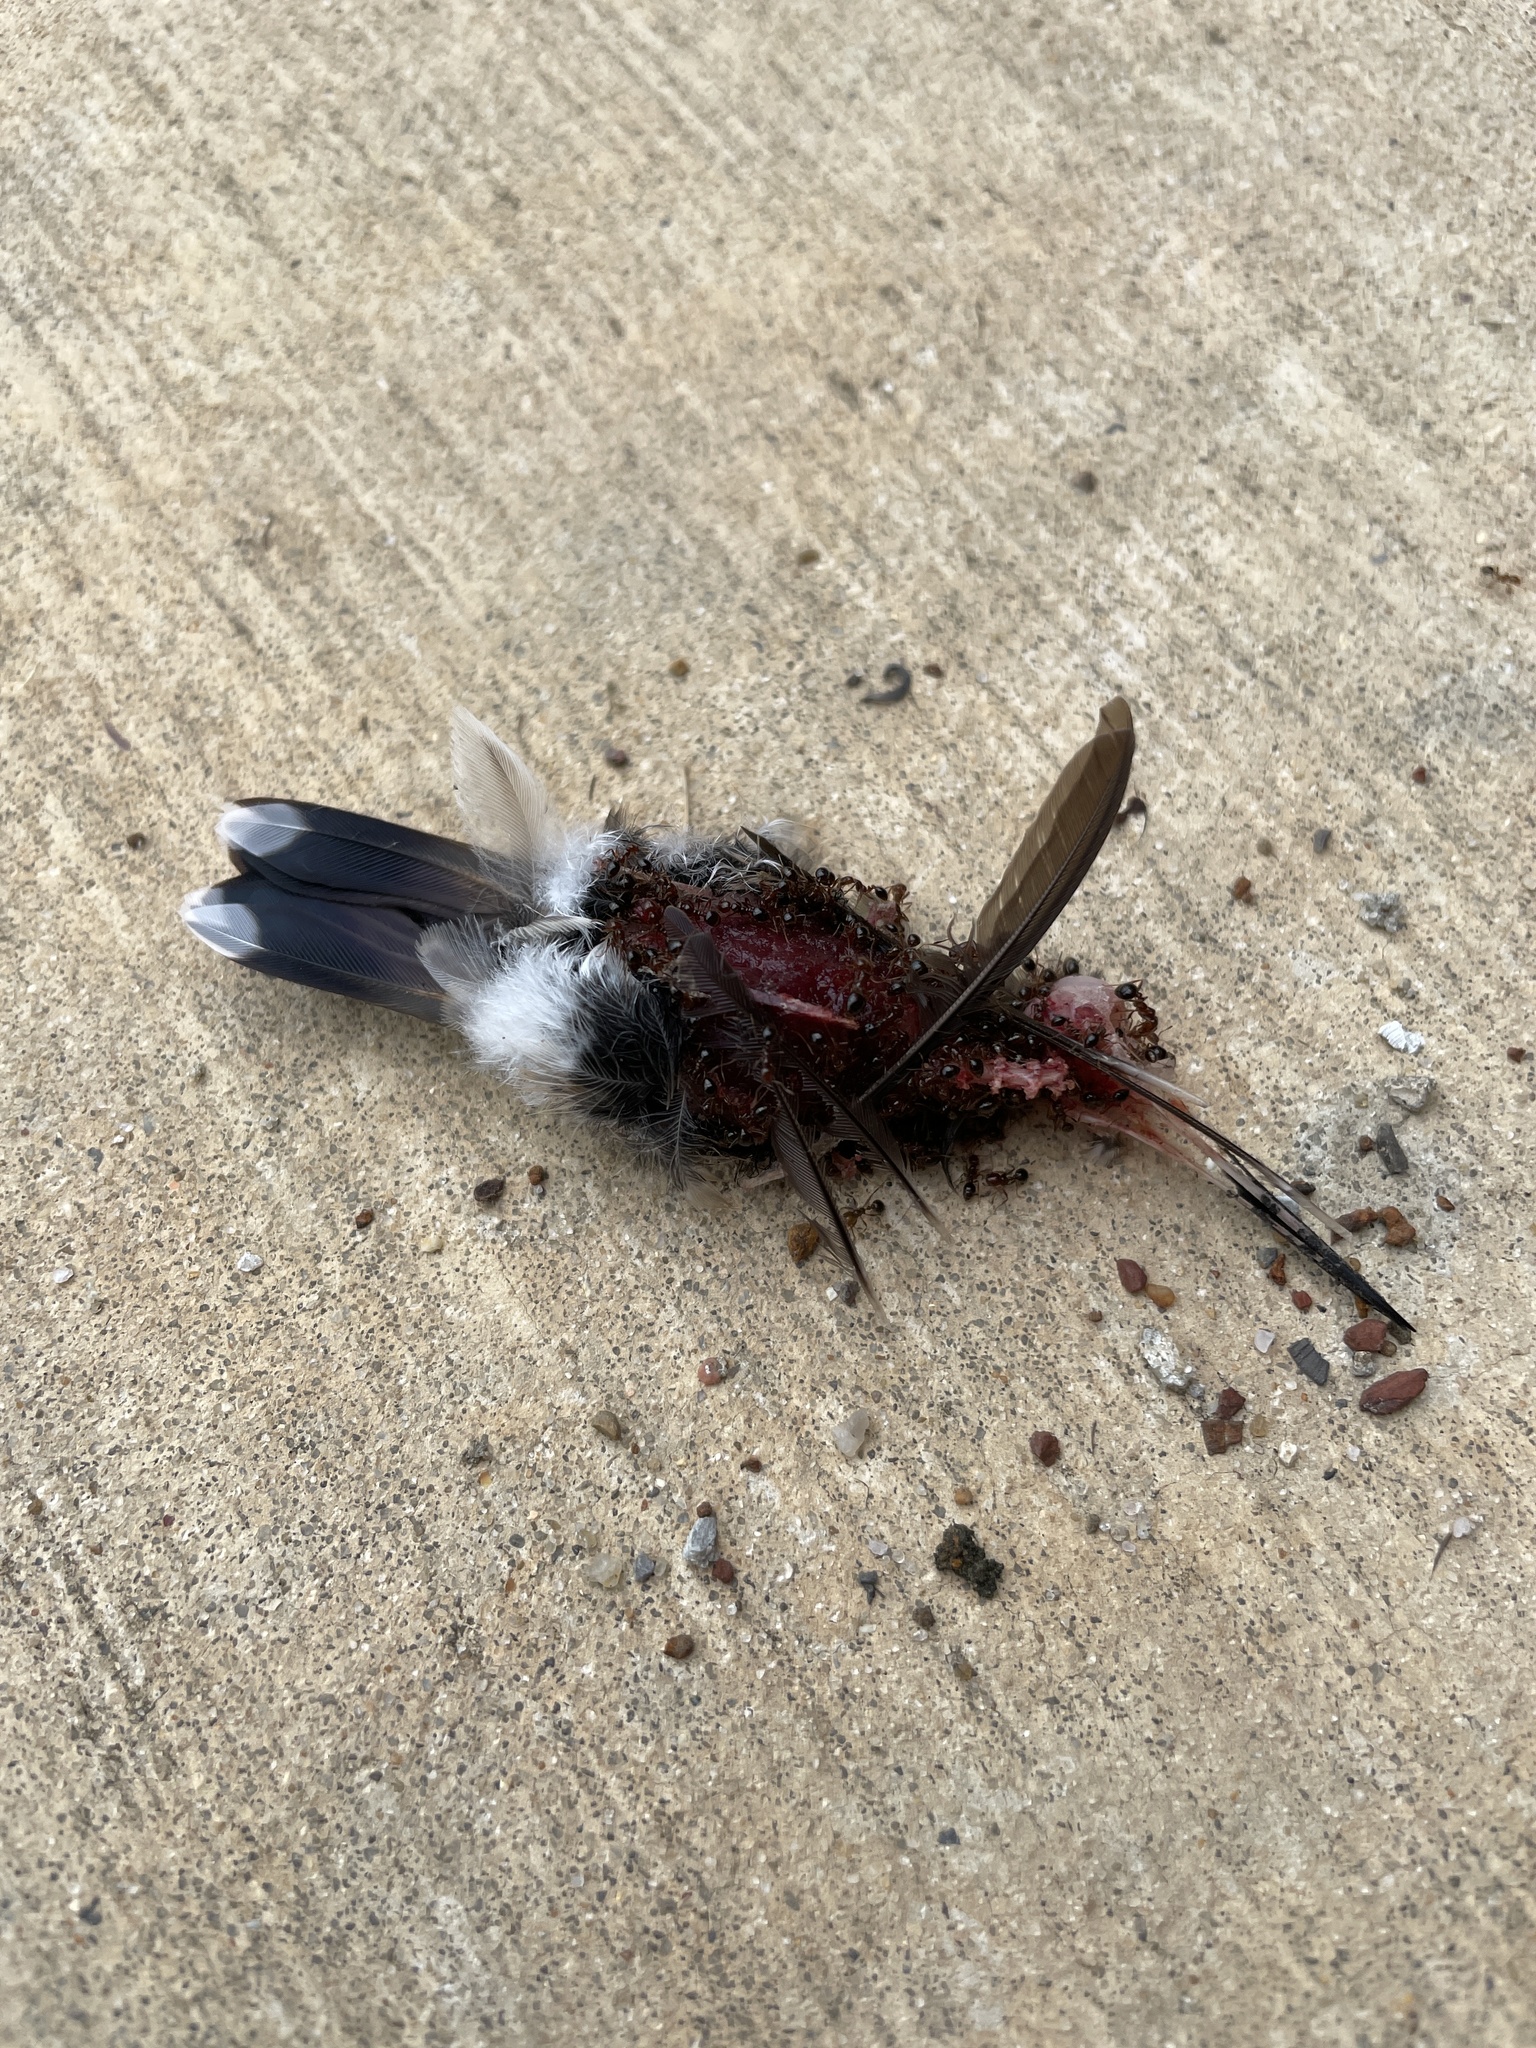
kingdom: Animalia
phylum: Chordata
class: Aves
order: Apodiformes
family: Trochilidae
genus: Archilochus
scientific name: Archilochus colubris
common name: Ruby-throated hummingbird
